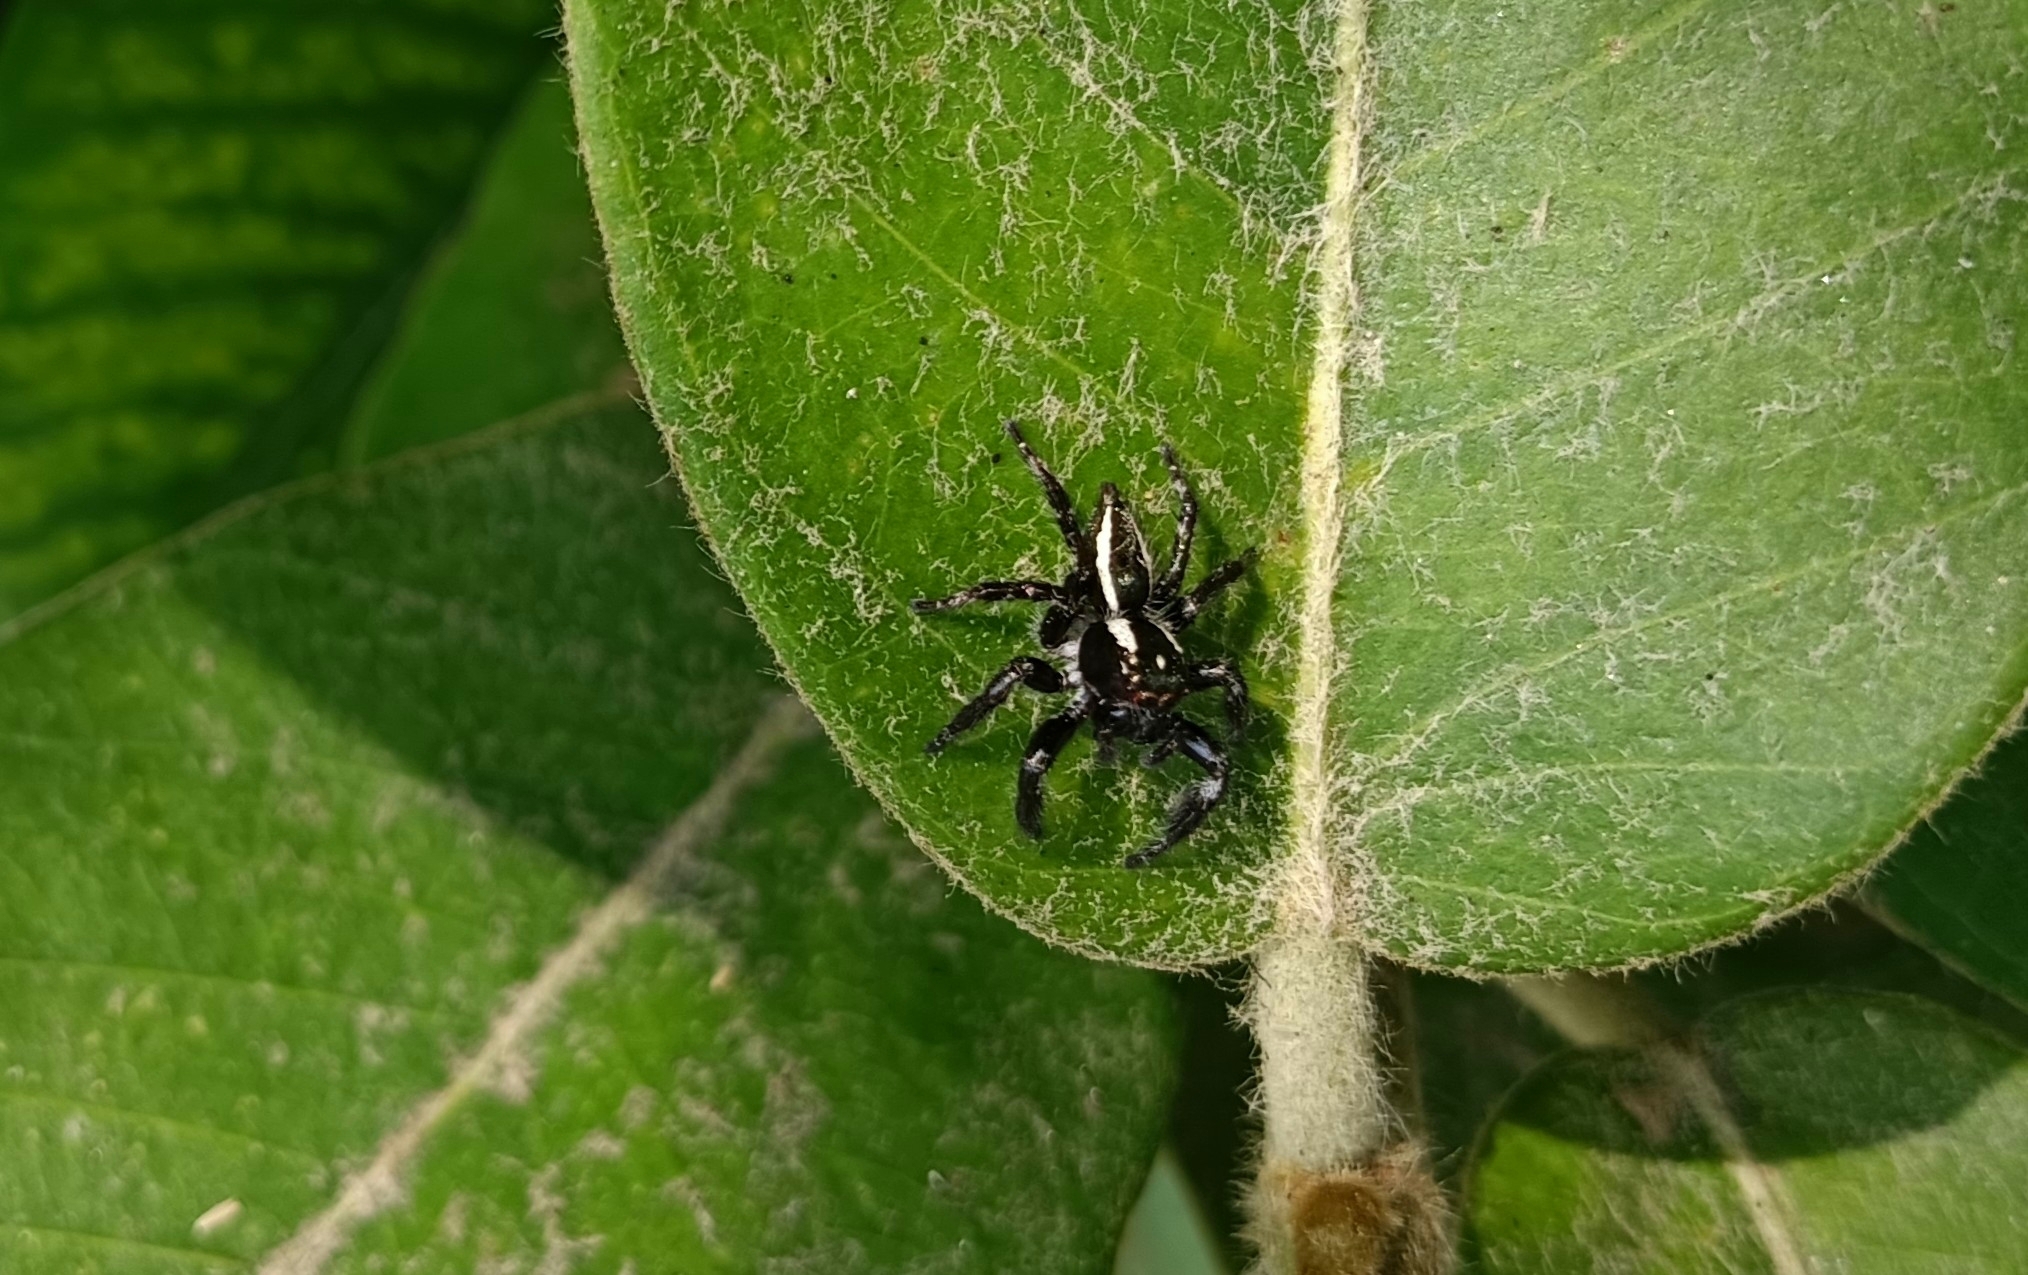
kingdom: Animalia
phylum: Arthropoda
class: Arachnida
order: Araneae
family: Salticidae
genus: Carrhotus
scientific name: Carrhotus viduus
